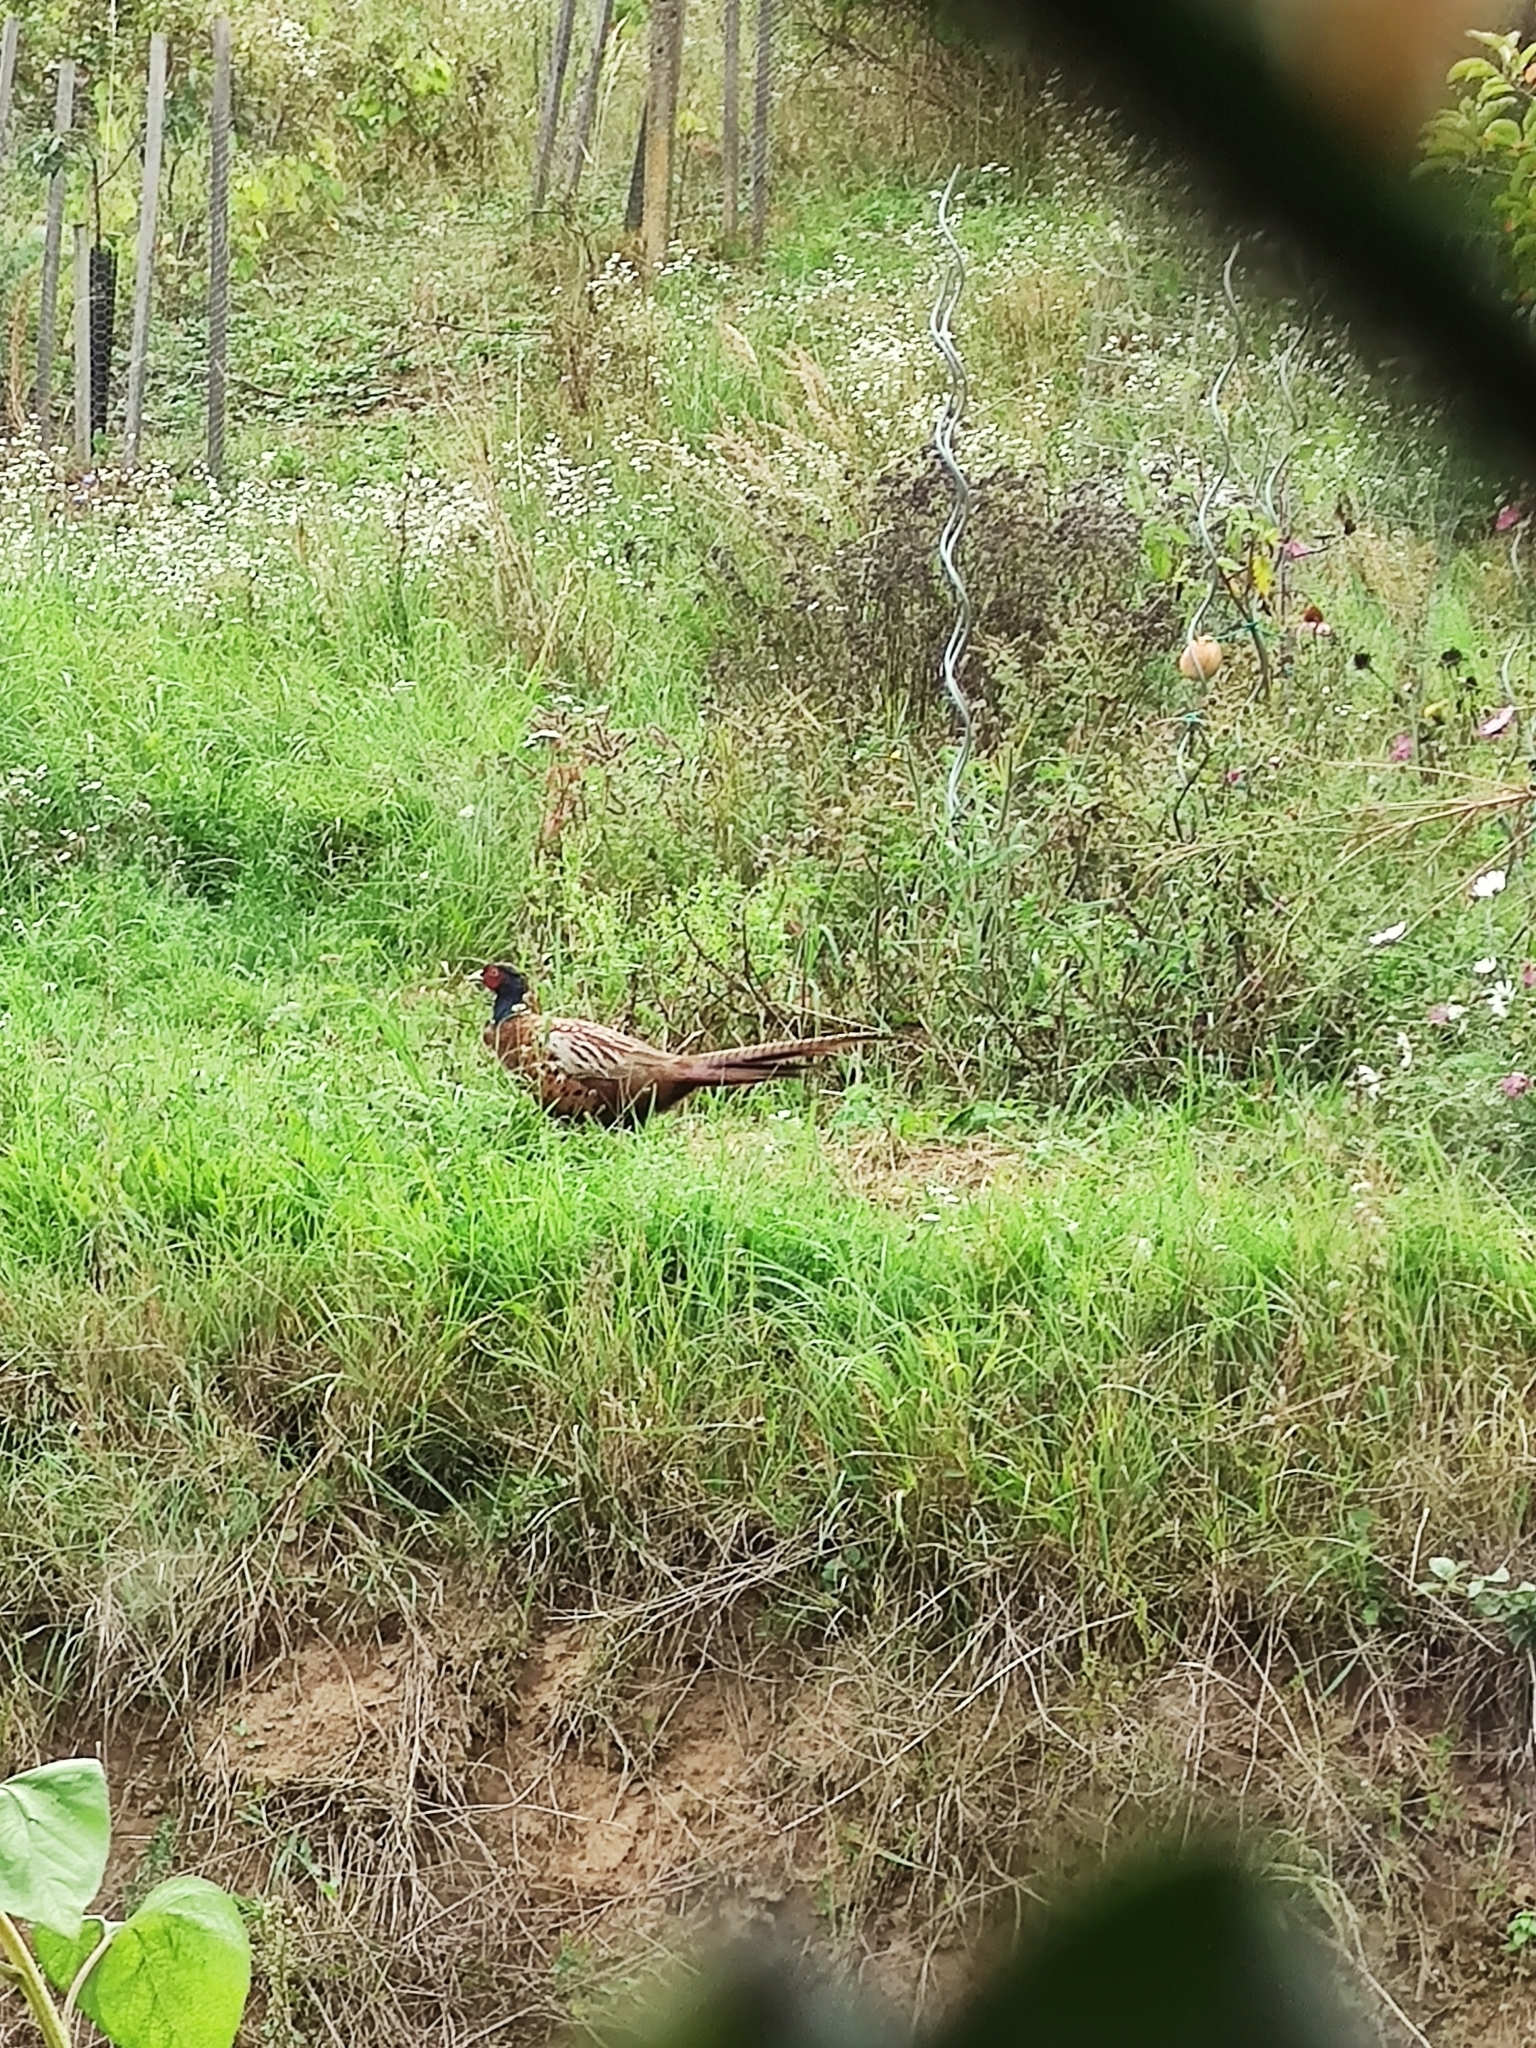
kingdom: Animalia
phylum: Chordata
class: Aves
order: Galliformes
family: Phasianidae
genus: Phasianus
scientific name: Phasianus colchicus
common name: Common pheasant
